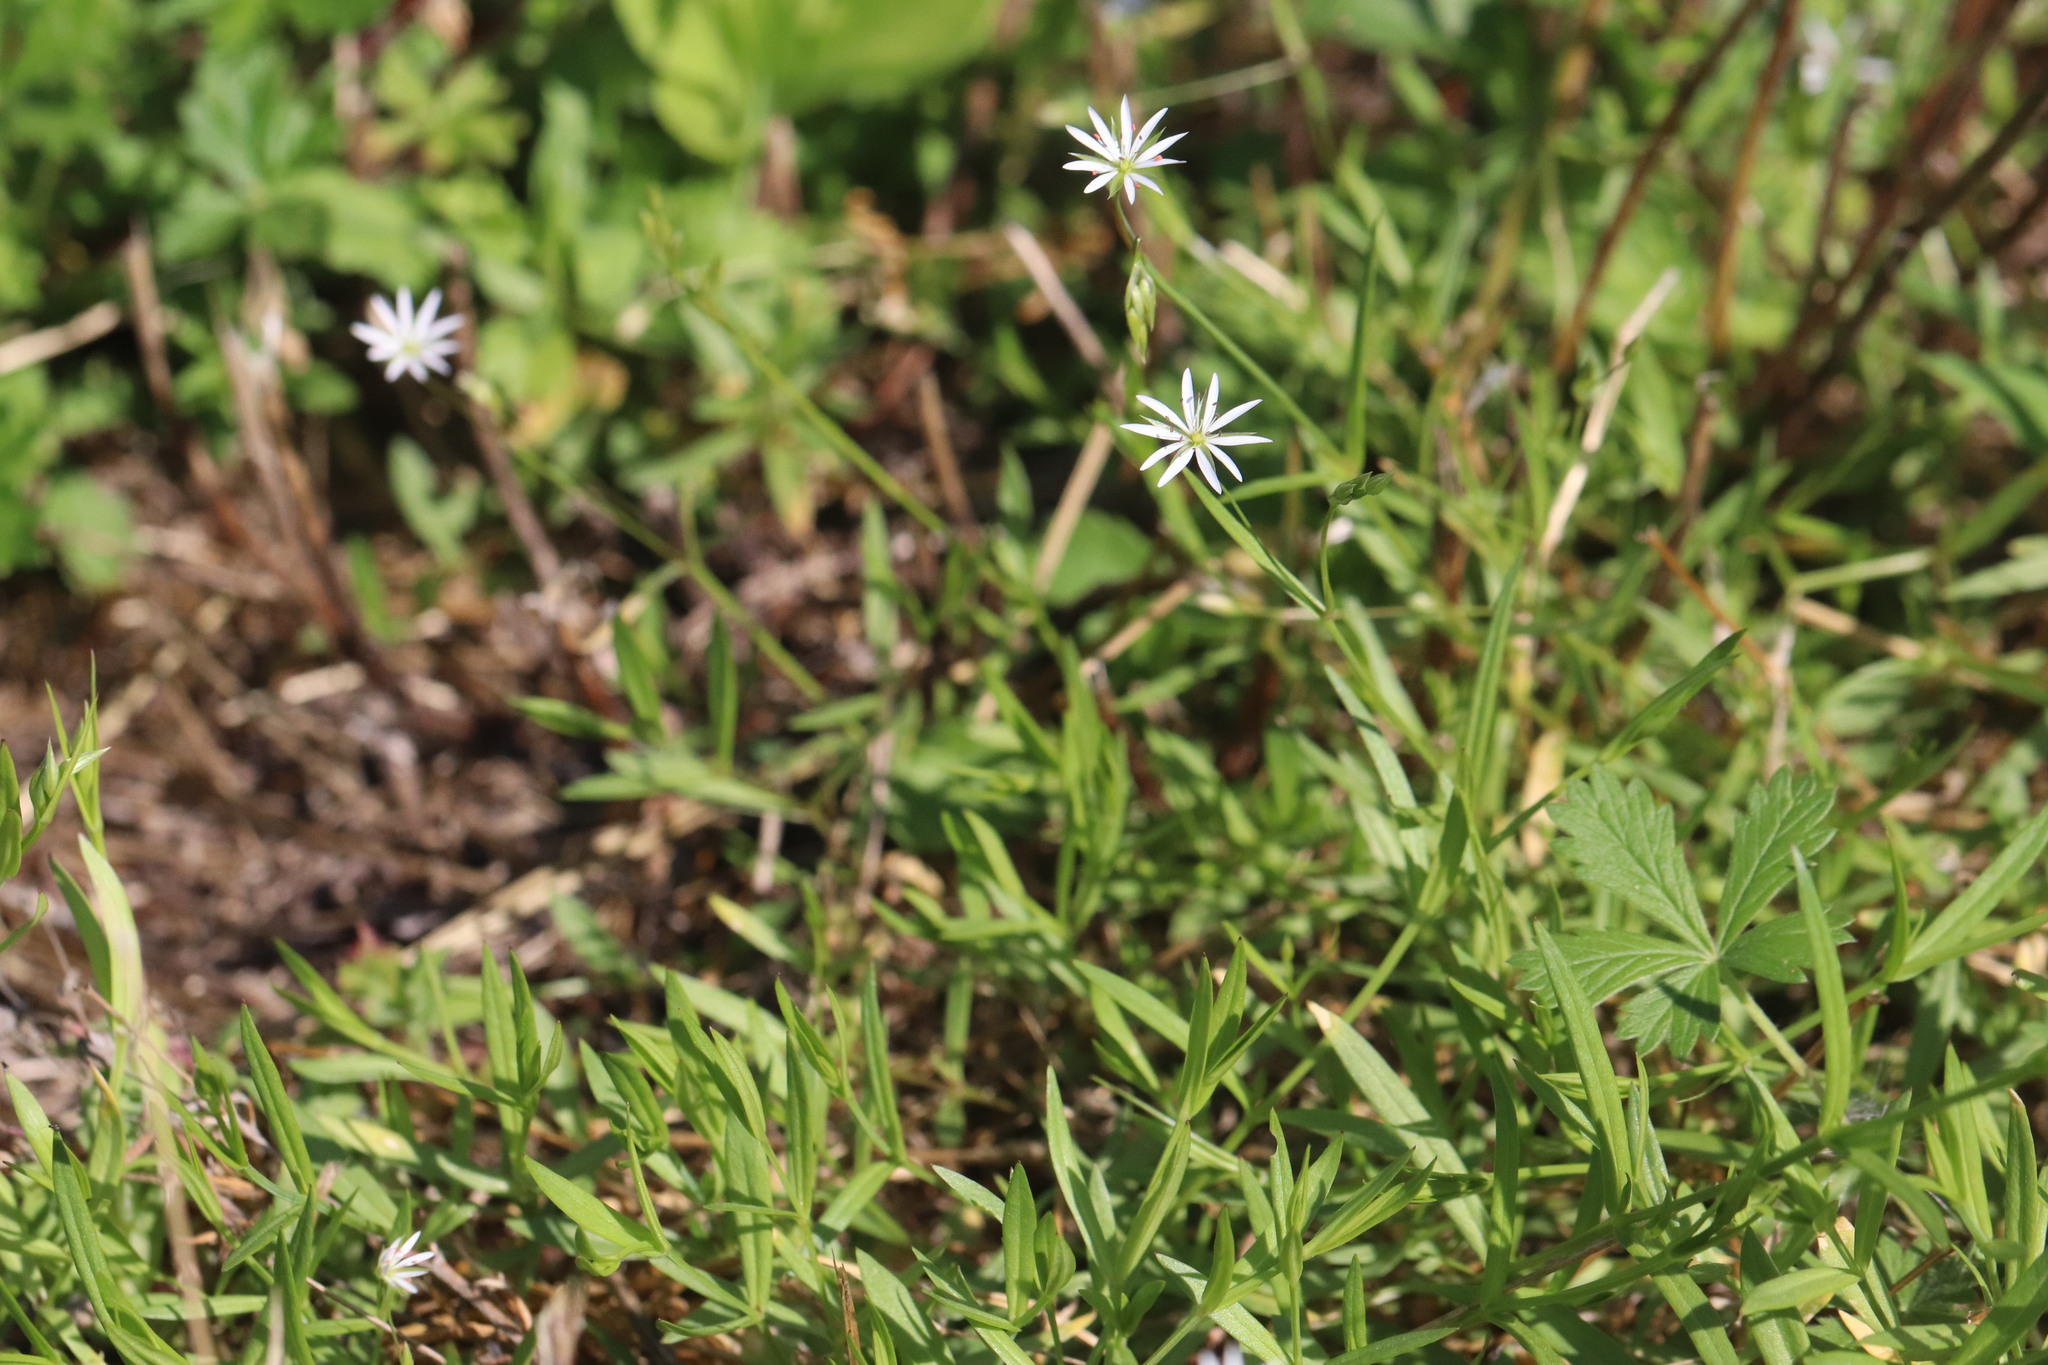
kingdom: Plantae
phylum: Tracheophyta
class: Magnoliopsida
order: Caryophyllales
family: Caryophyllaceae
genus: Stellaria
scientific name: Stellaria graminea
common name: Grass-like starwort
